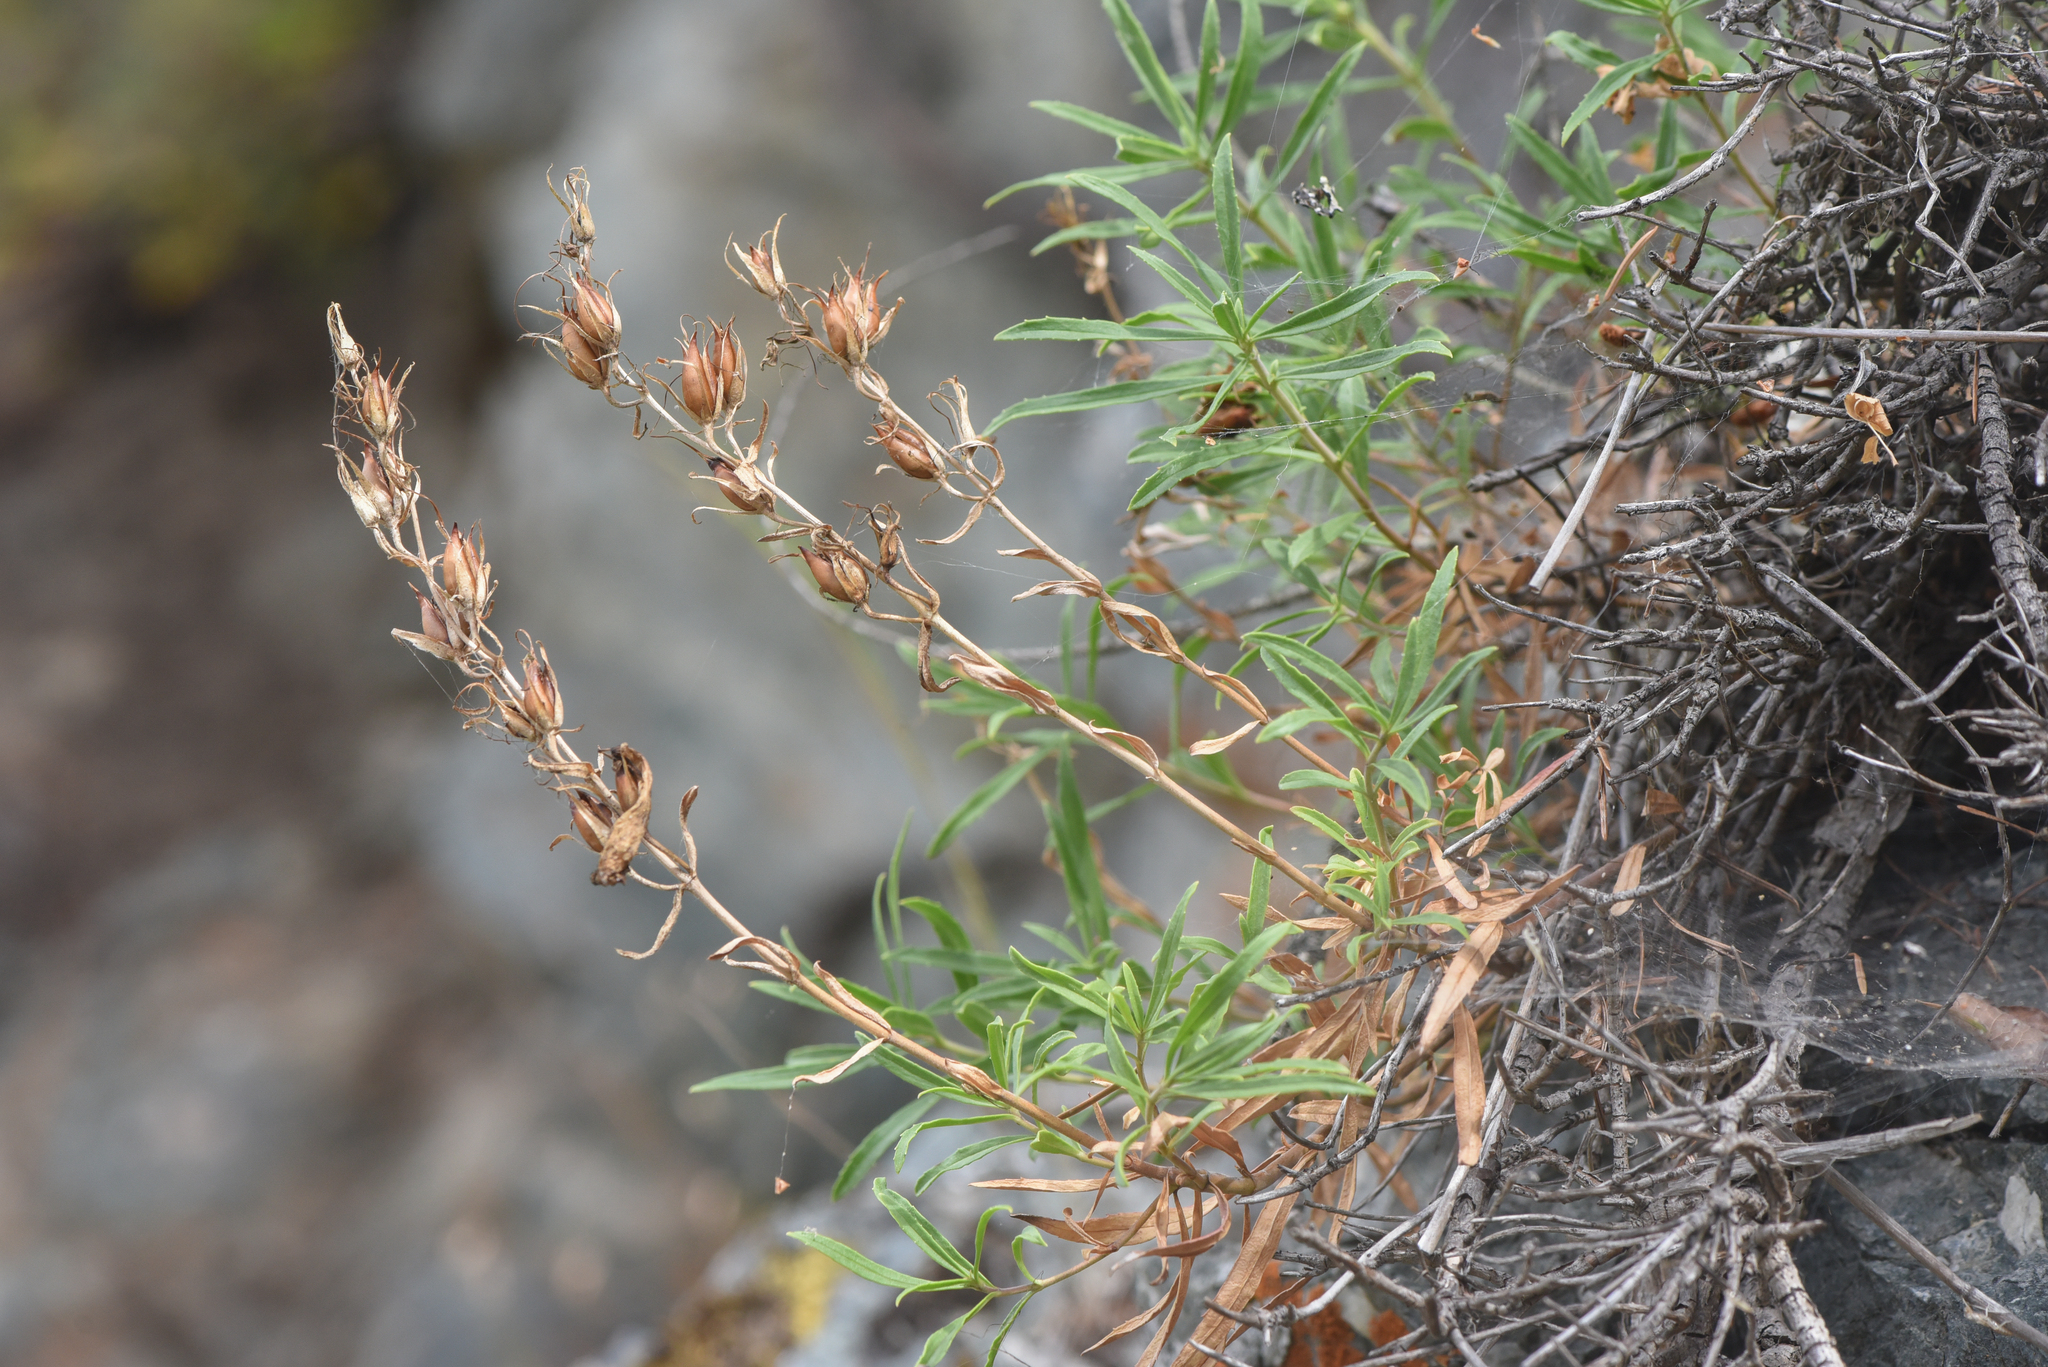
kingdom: Plantae
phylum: Tracheophyta
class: Magnoliopsida
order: Lamiales
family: Plantaginaceae
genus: Penstemon
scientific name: Penstemon fruticosus
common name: Bush penstemon
